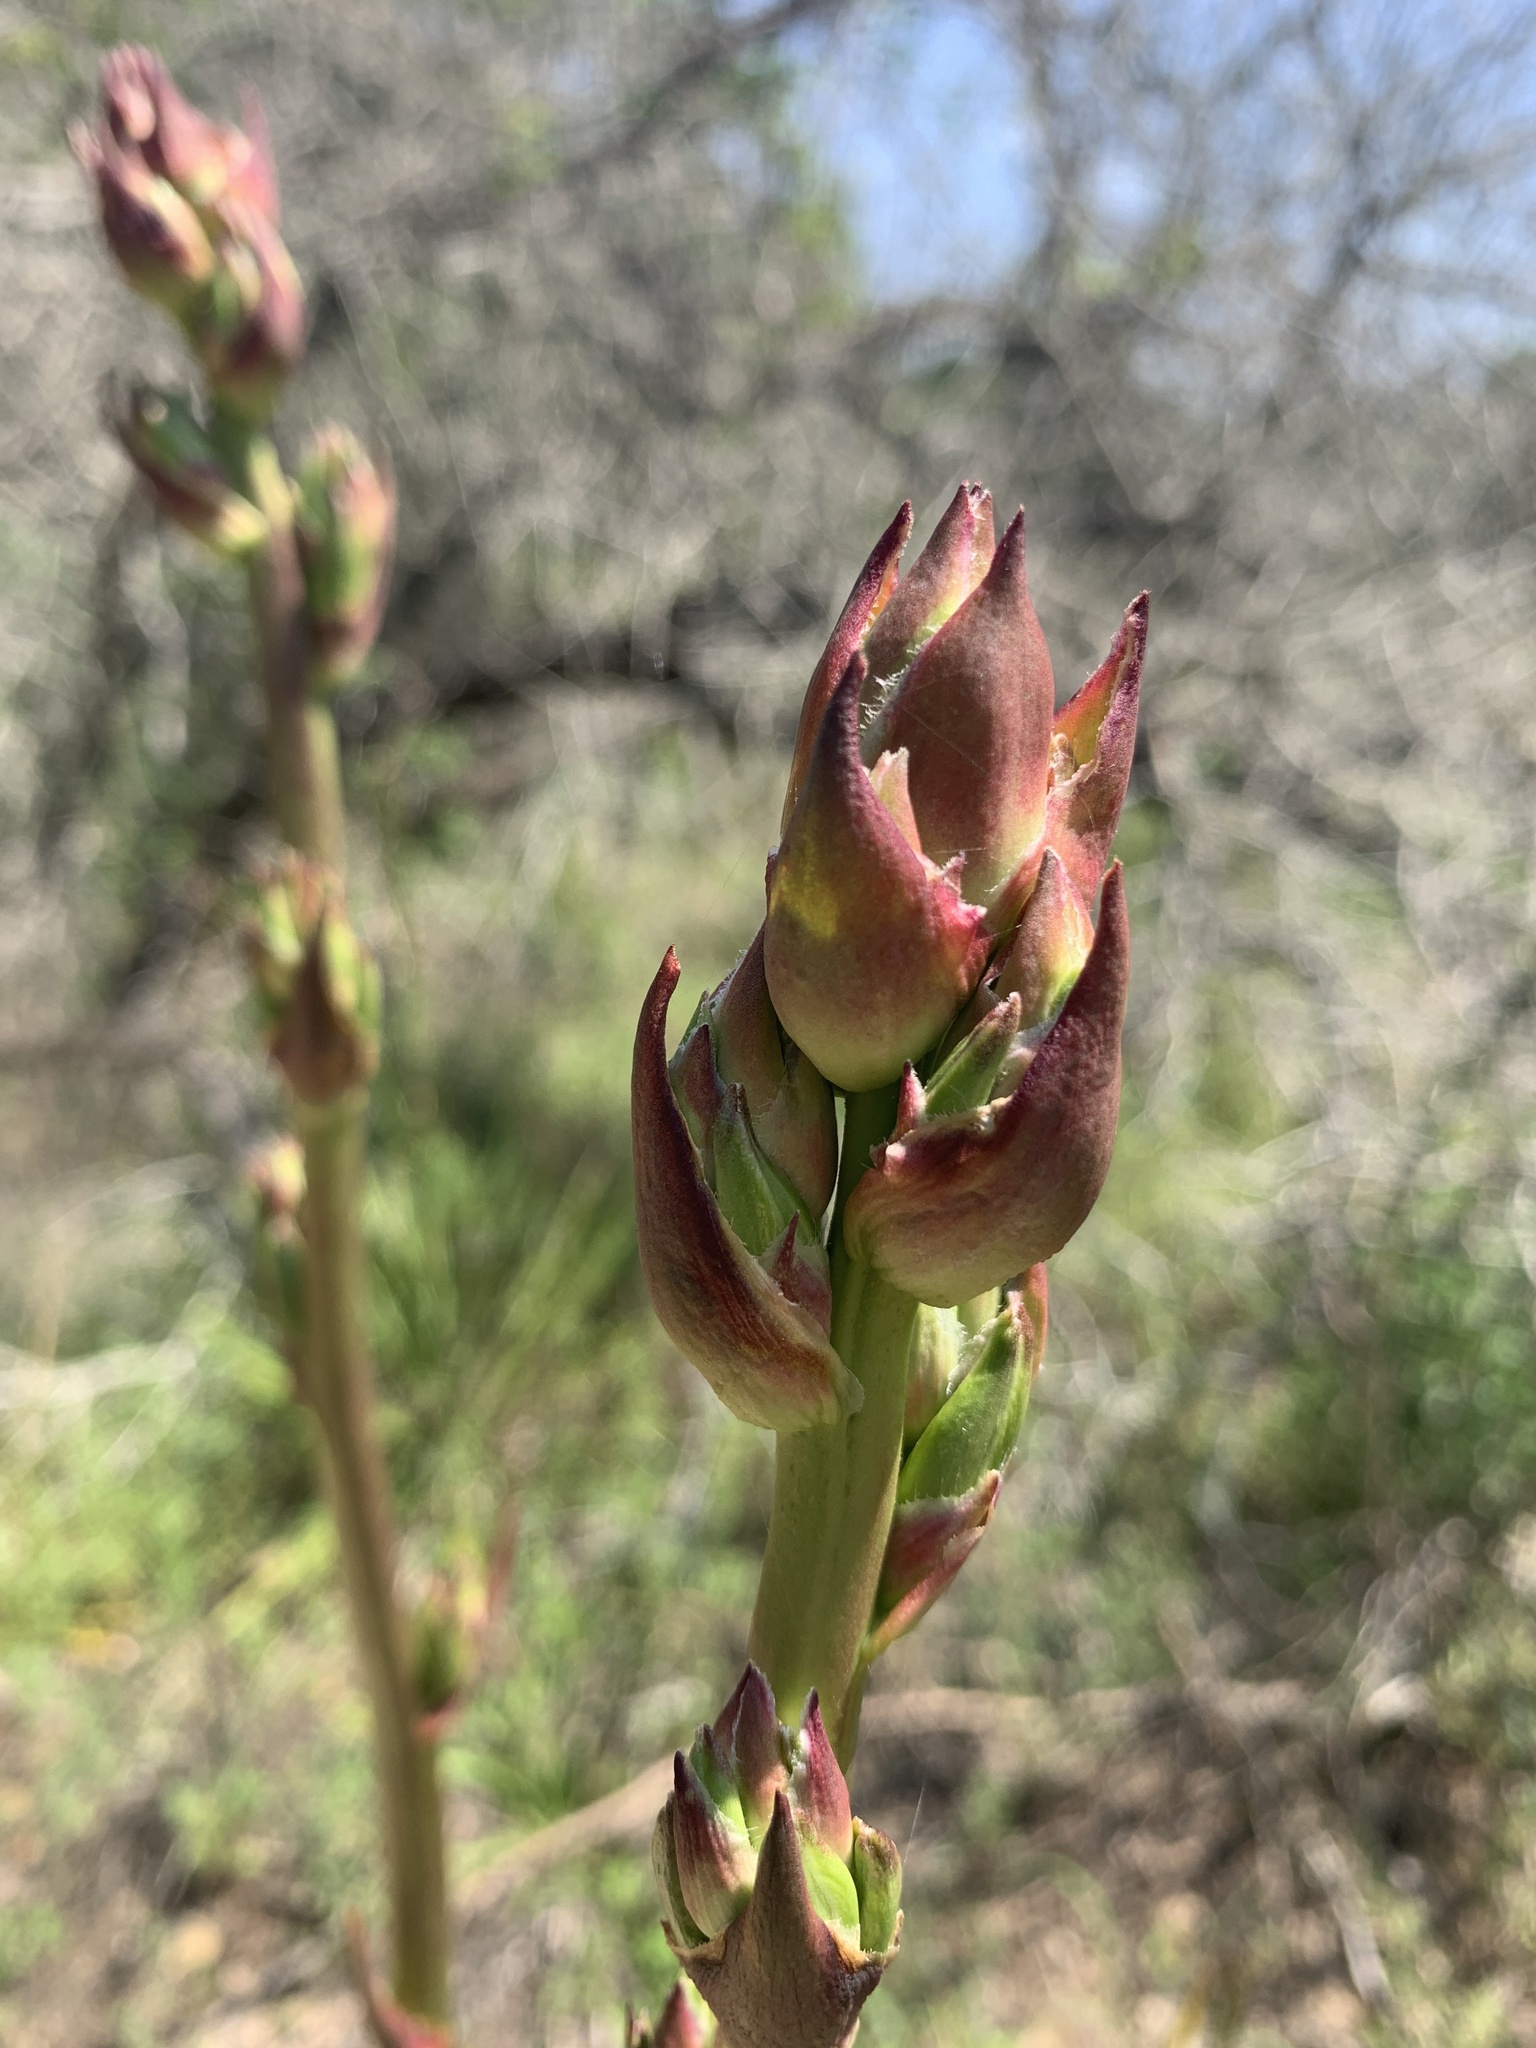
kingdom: Plantae
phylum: Tracheophyta
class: Liliopsida
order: Asparagales
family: Asparagaceae
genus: Yucca
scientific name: Yucca rupicola
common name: Twisted-leaf spanish-dagger
